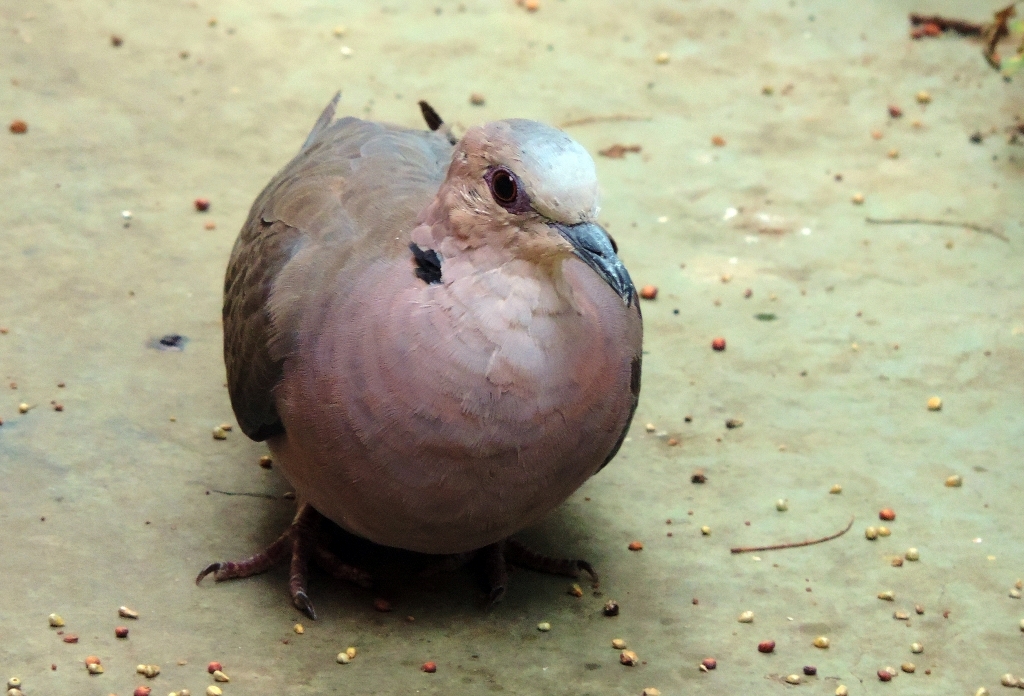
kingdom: Animalia
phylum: Chordata
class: Aves
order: Columbiformes
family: Columbidae
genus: Streptopelia
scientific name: Streptopelia semitorquata
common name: Red-eyed dove
